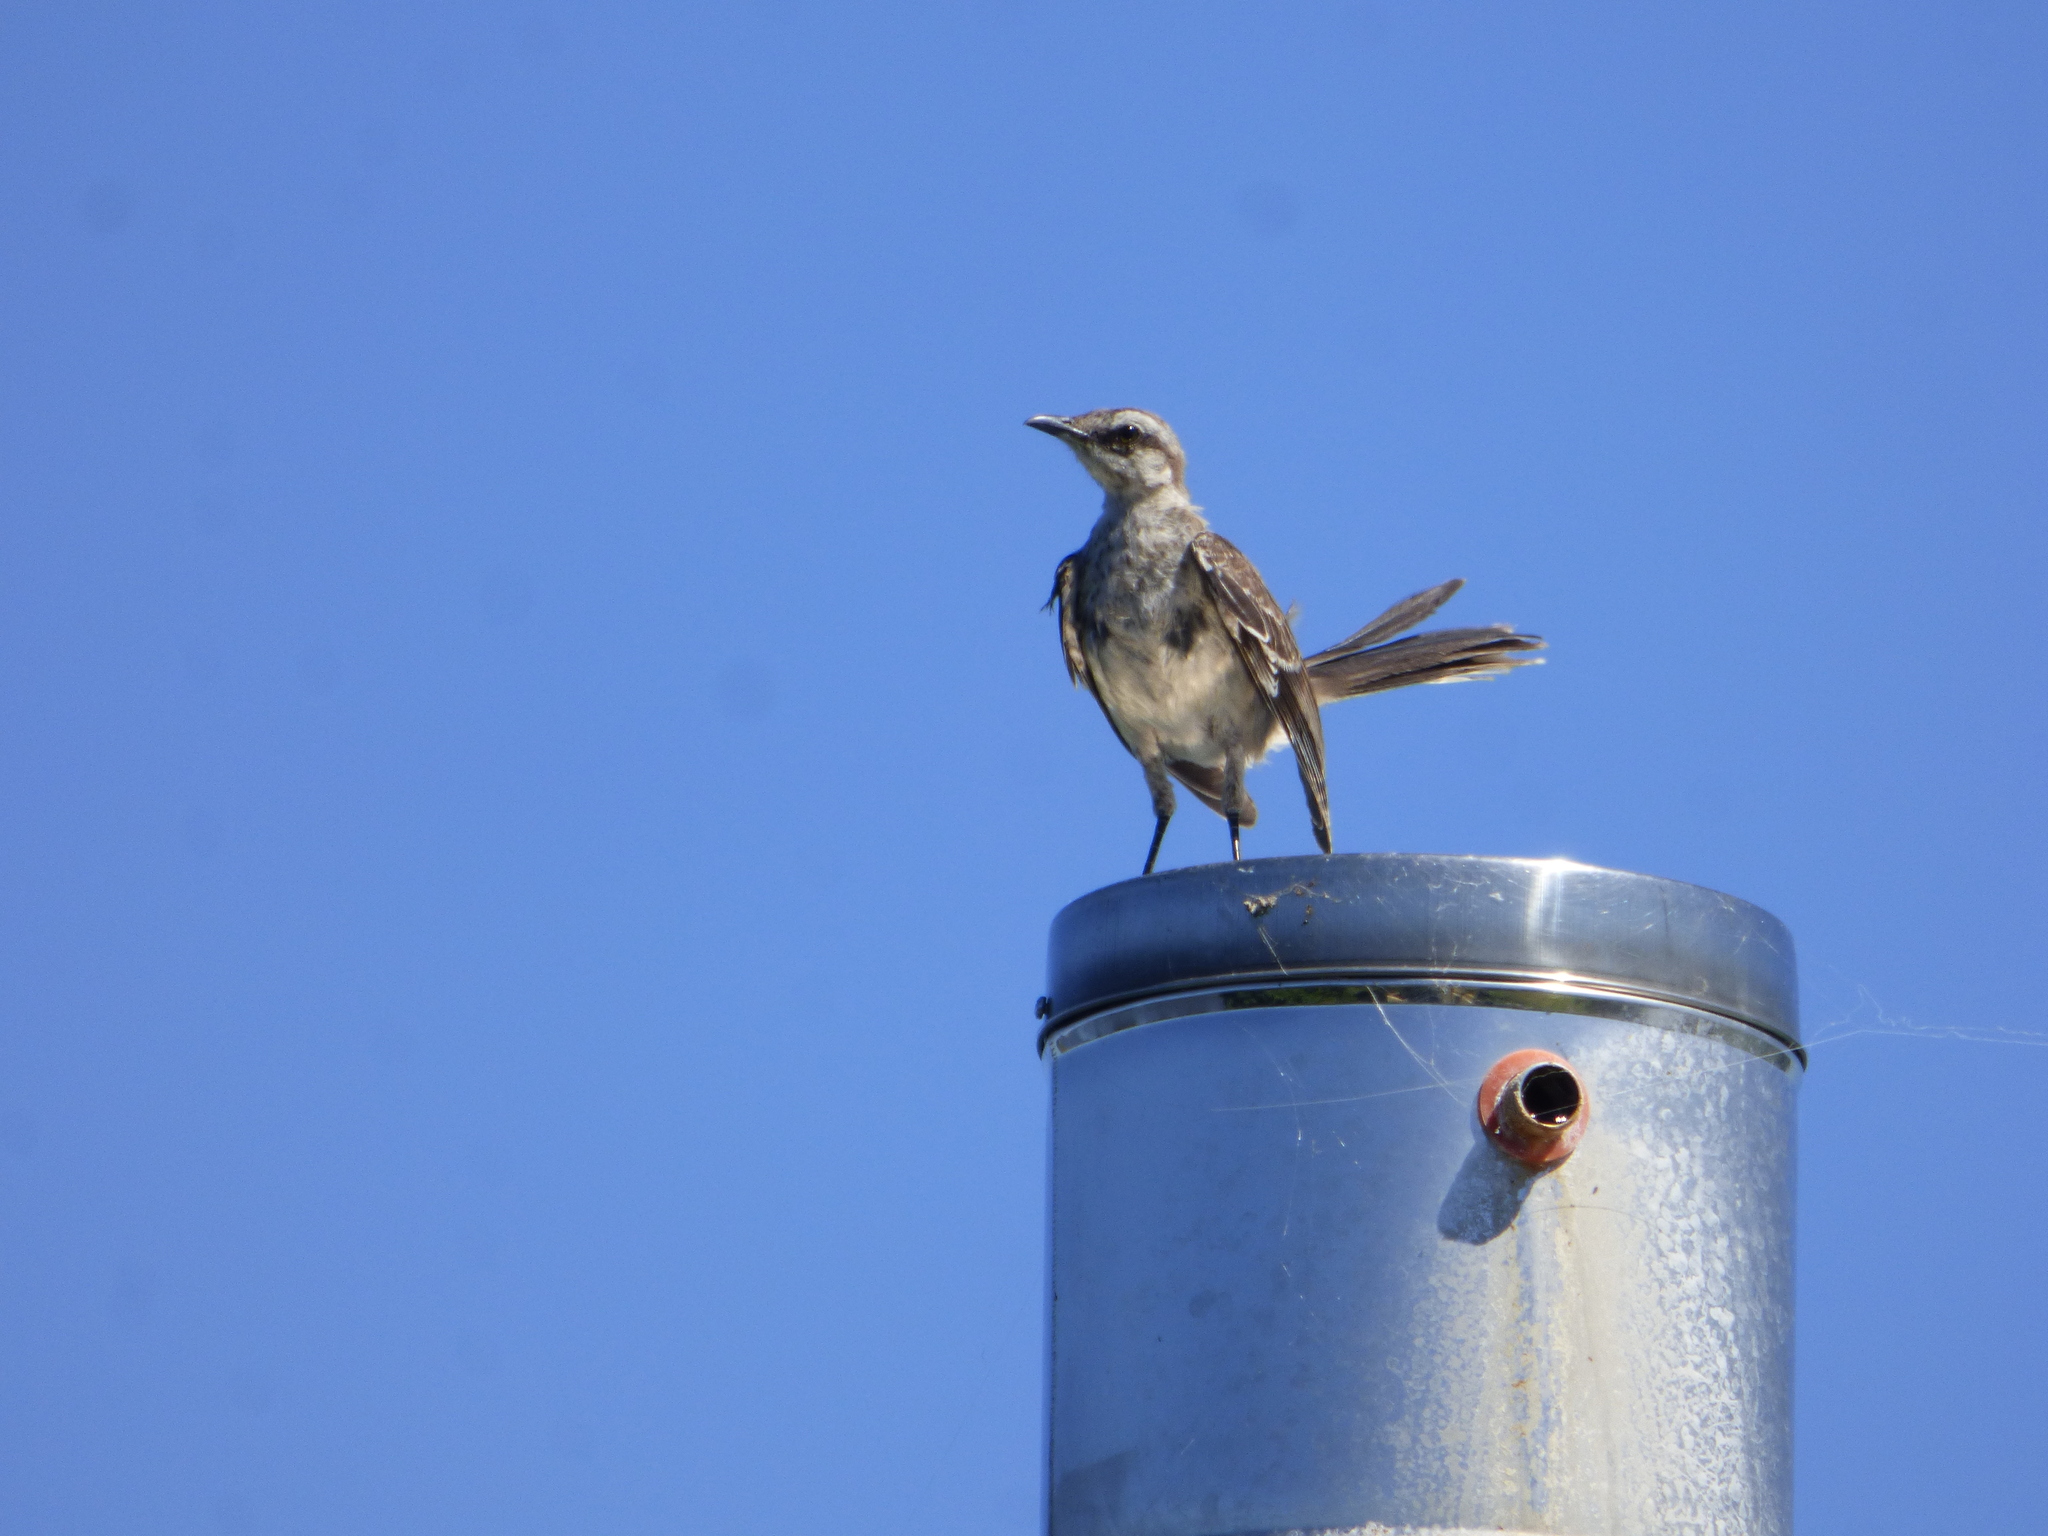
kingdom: Animalia
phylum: Chordata
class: Aves
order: Passeriformes
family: Mimidae
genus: Mimus
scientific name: Mimus saturninus
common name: Chalk-browed mockingbird
